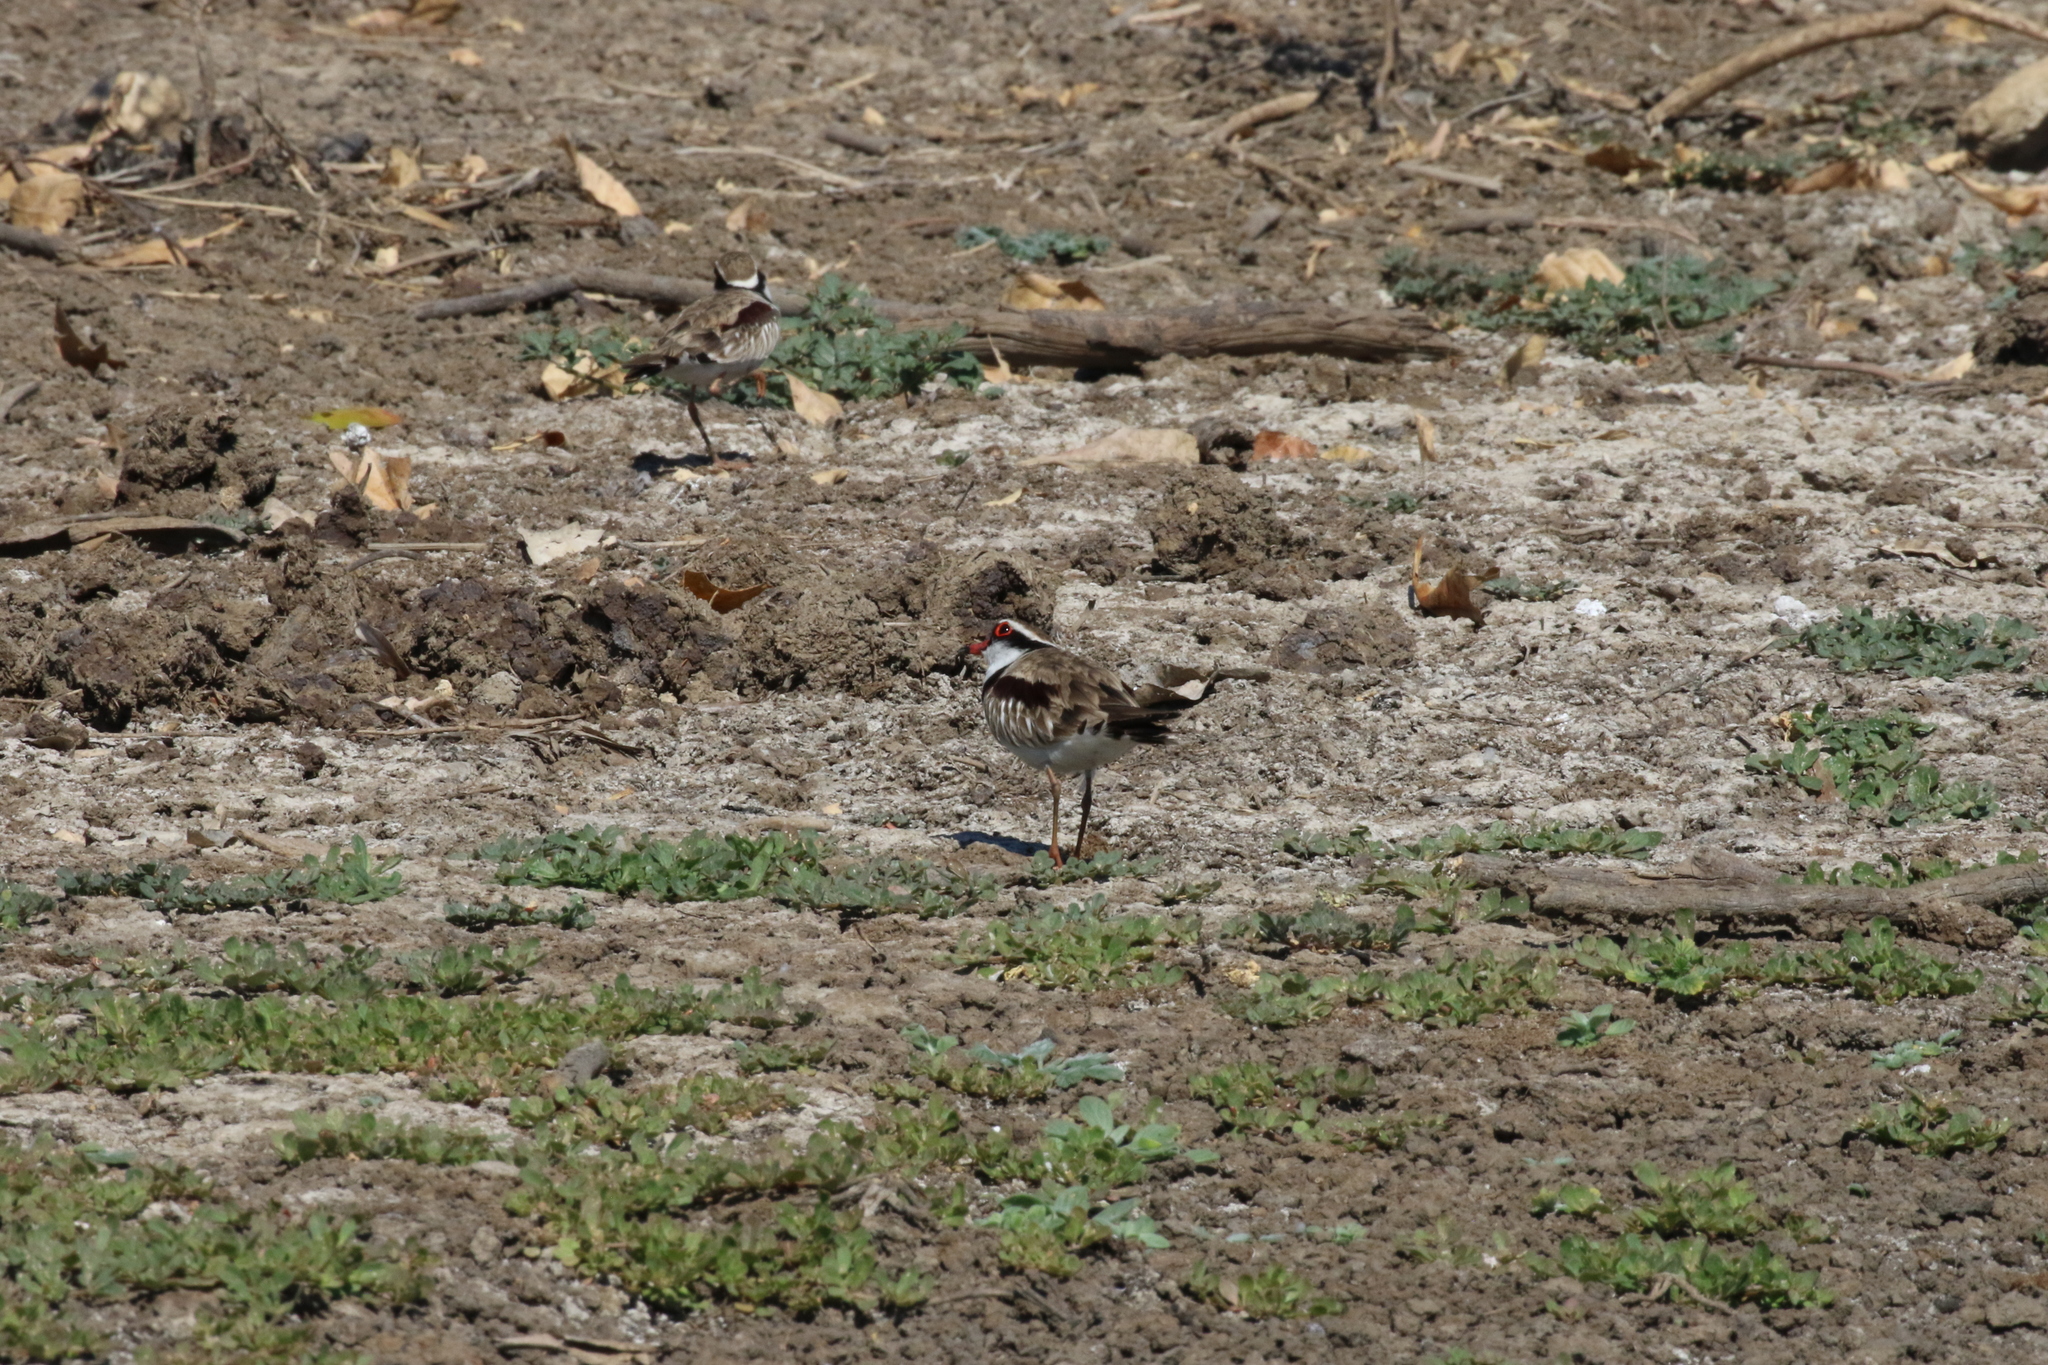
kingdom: Animalia
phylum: Chordata
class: Aves
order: Charadriiformes
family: Charadriidae
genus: Elseyornis
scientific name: Elseyornis melanops
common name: Black-fronted dotterel
